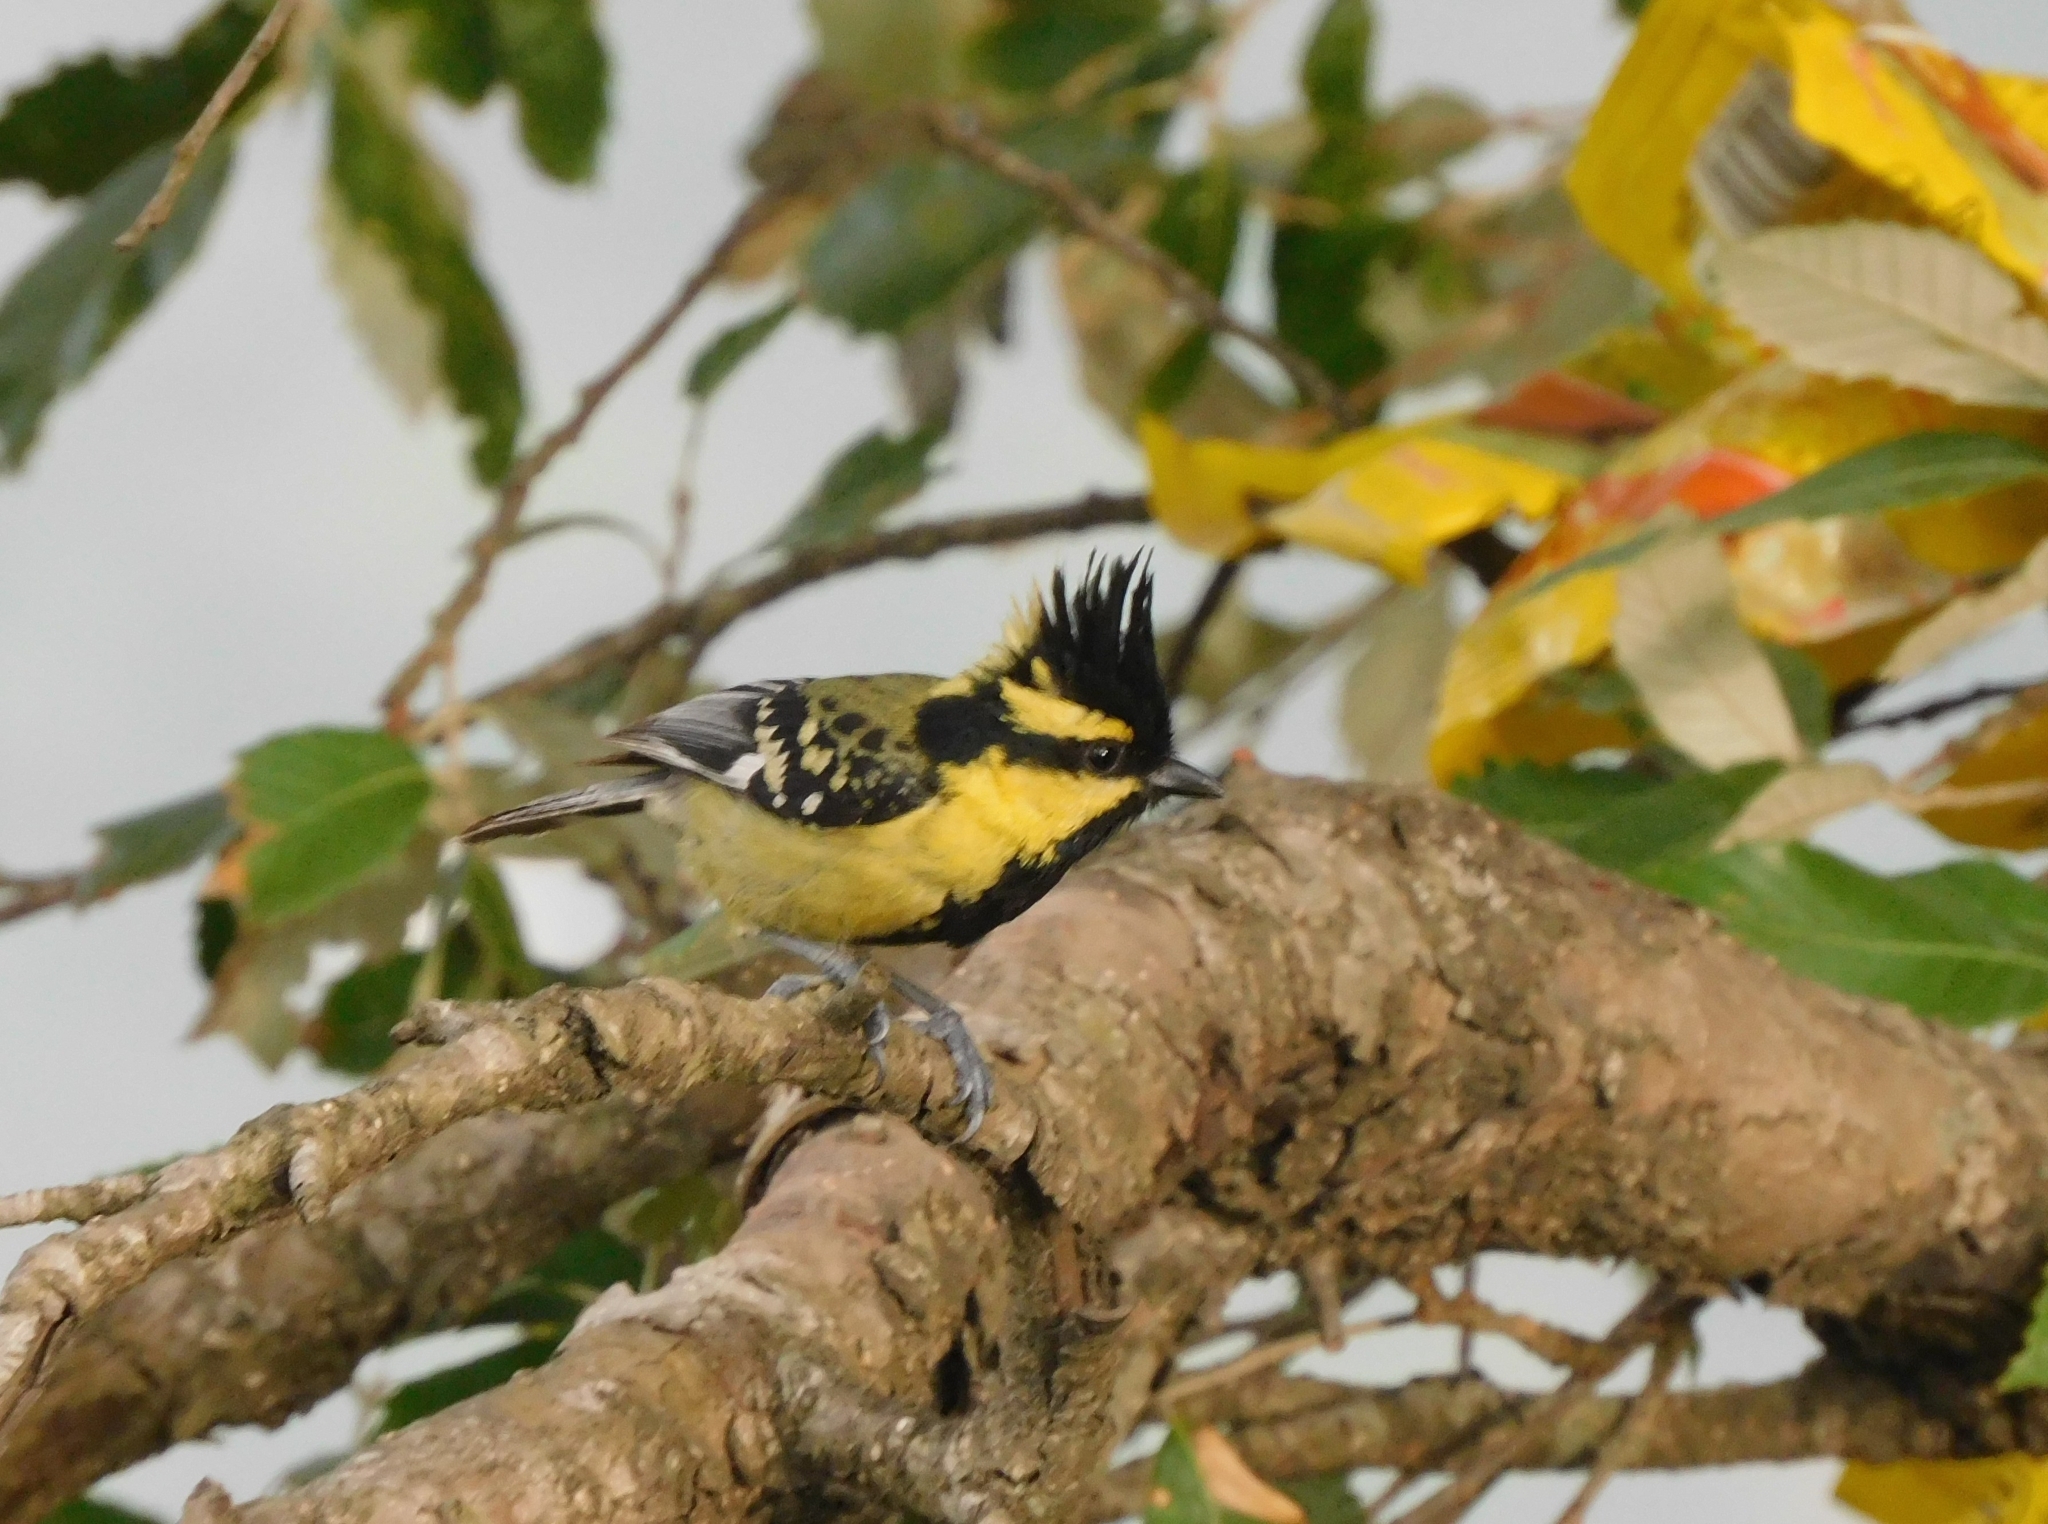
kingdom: Animalia
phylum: Chordata
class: Aves
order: Passeriformes
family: Paridae
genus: Parus
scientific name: Parus xanthogenys
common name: Black-lored tit
